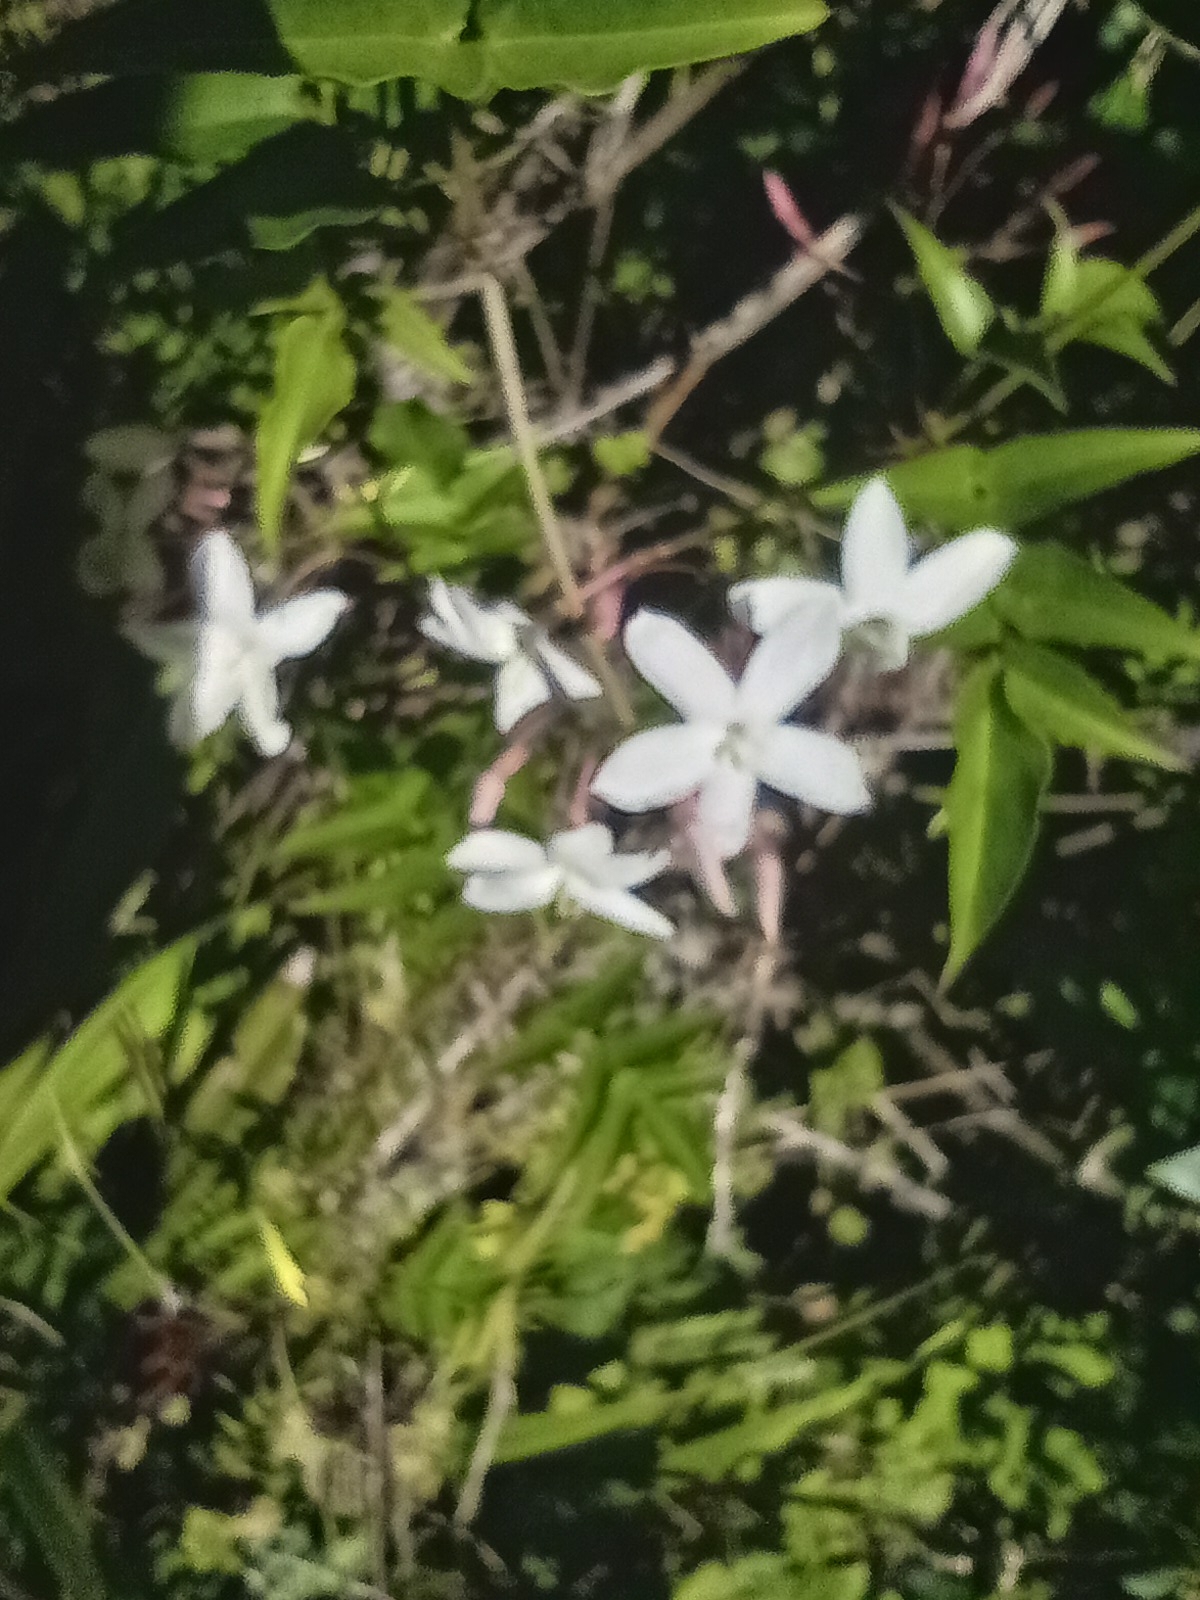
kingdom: Plantae
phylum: Tracheophyta
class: Magnoliopsida
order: Lamiales
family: Oleaceae
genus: Jasminum
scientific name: Jasminum polyanthum
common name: Pink jasmine
